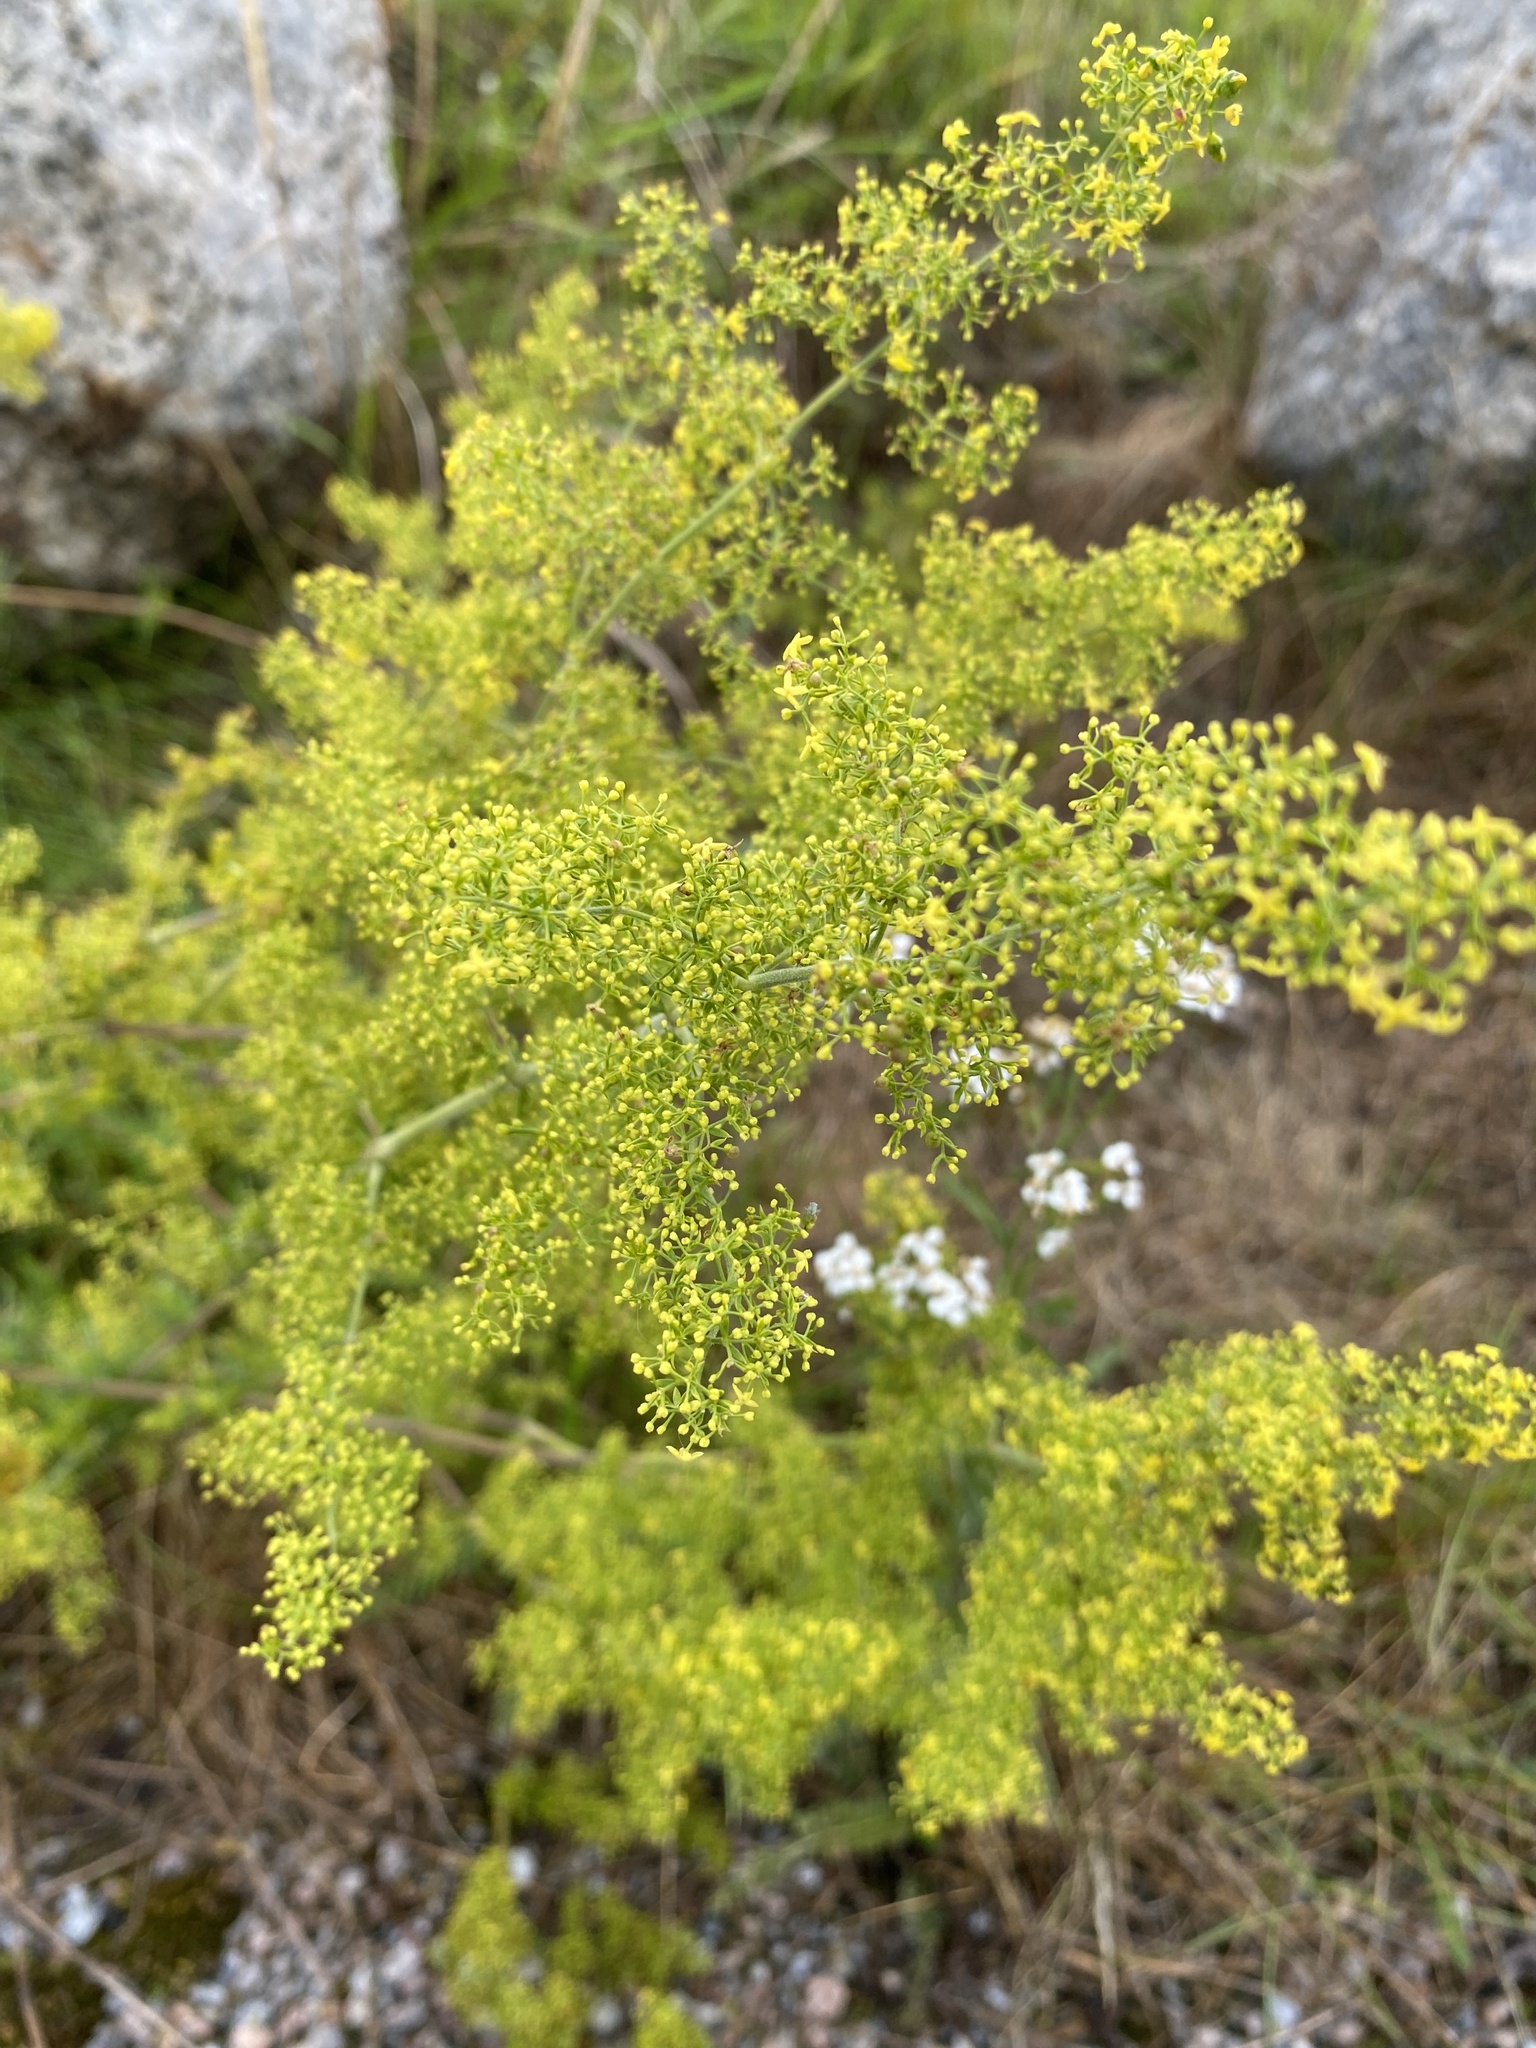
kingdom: Plantae
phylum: Tracheophyta
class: Magnoliopsida
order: Gentianales
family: Rubiaceae
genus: Galium
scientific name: Galium verum
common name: Lady's bedstraw
